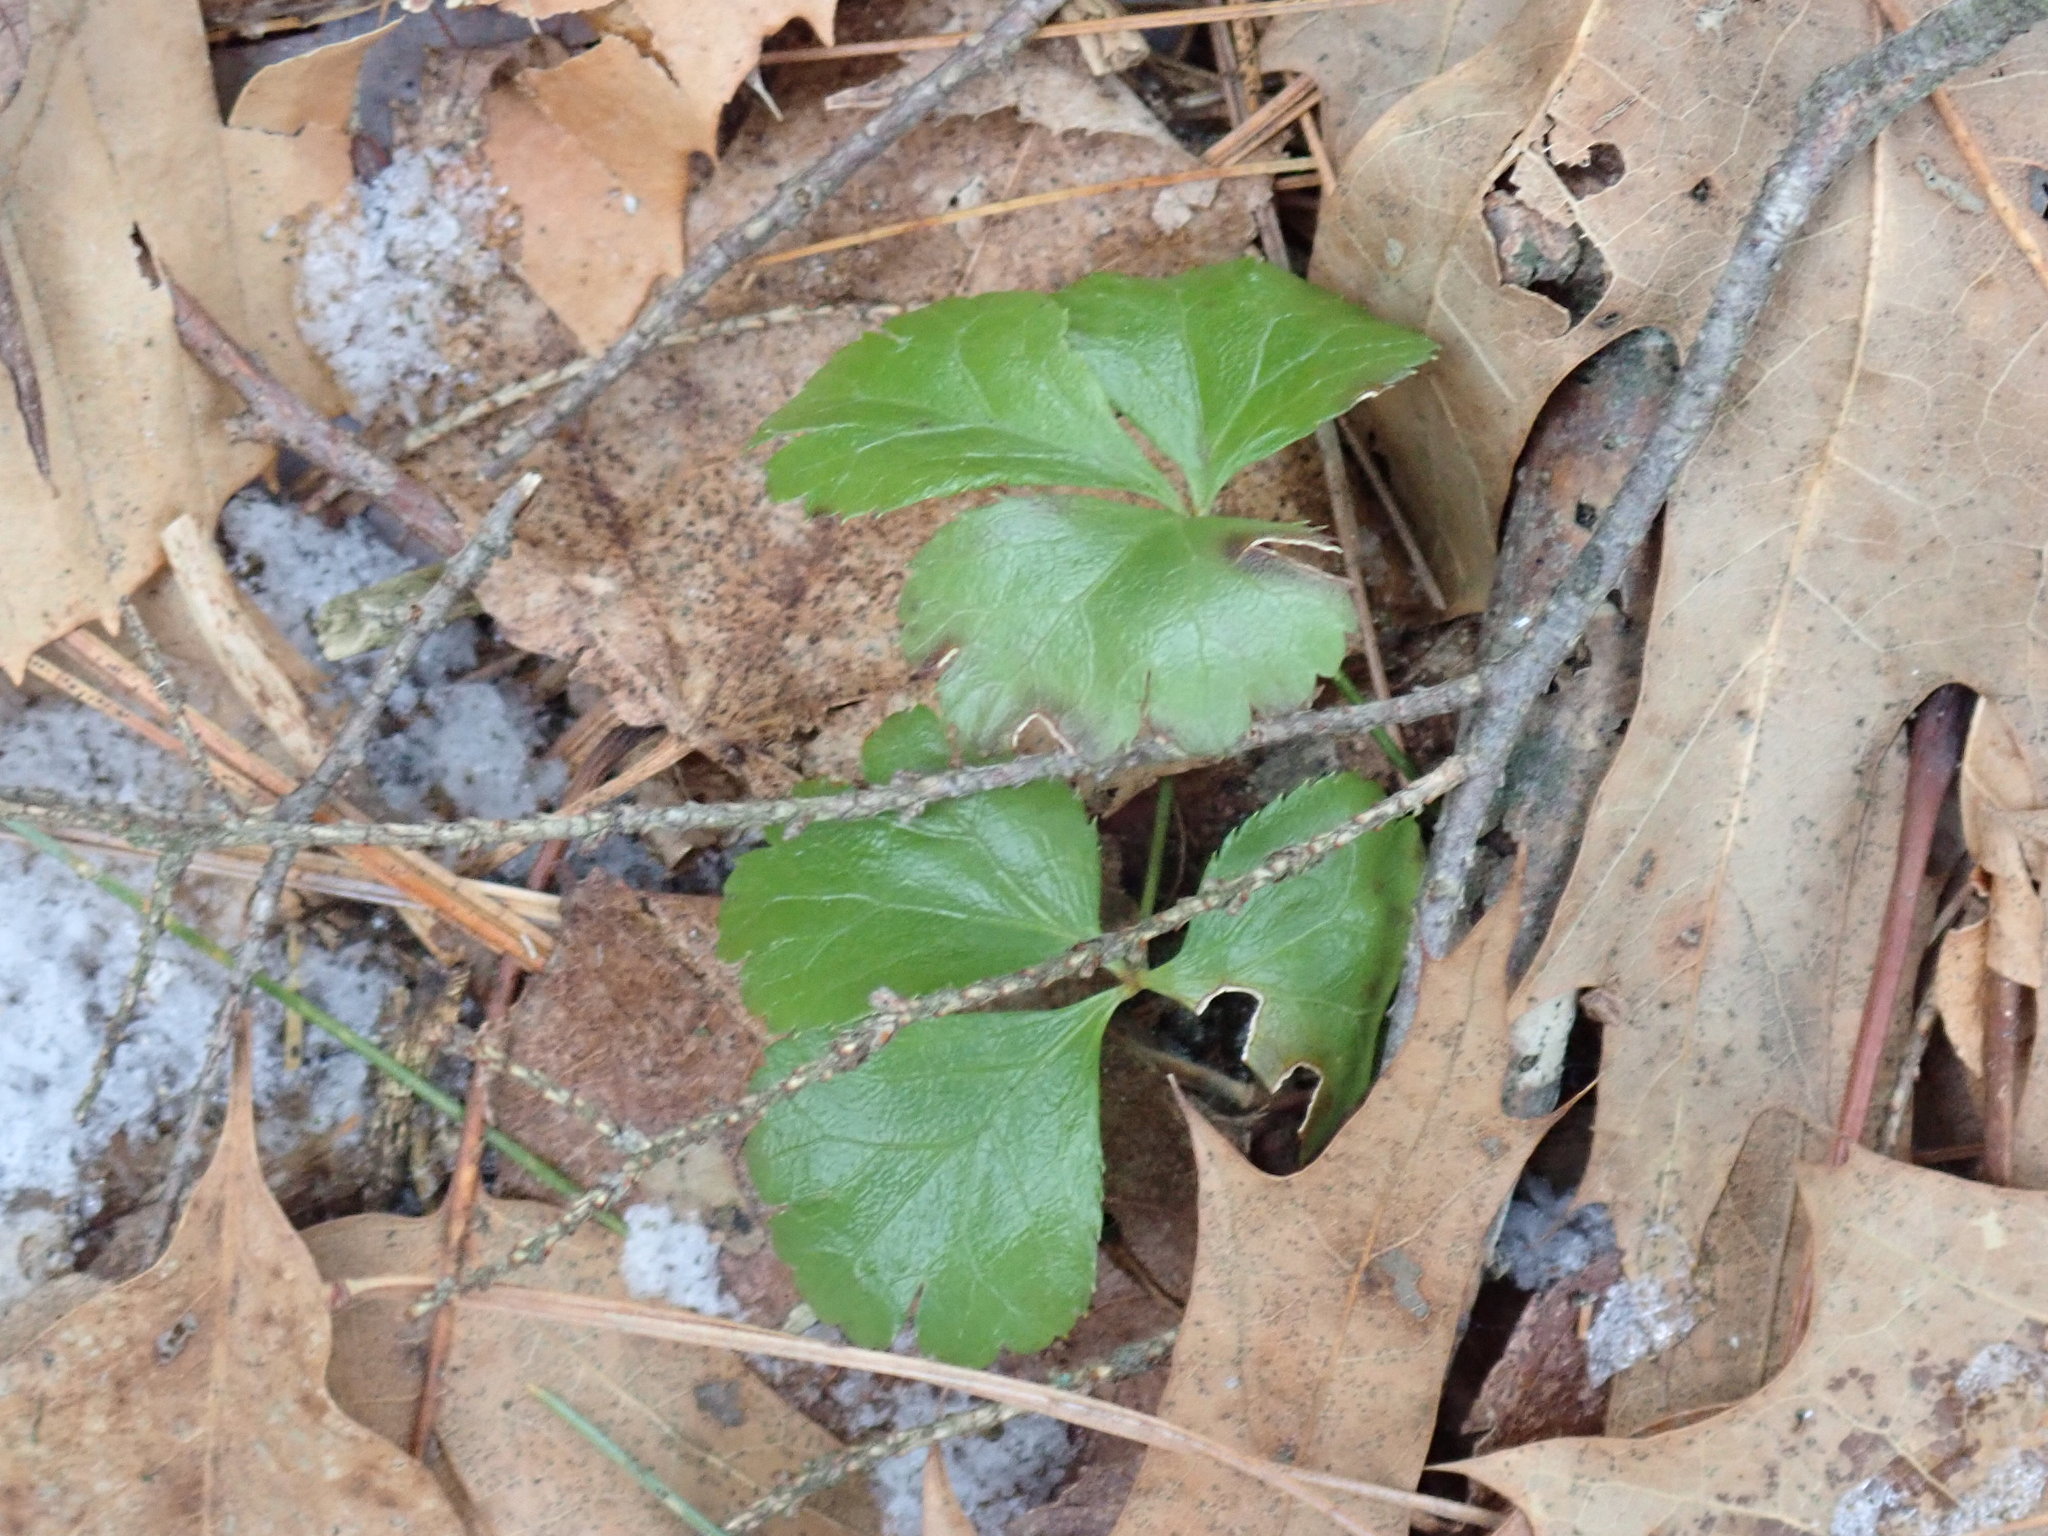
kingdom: Plantae
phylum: Tracheophyta
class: Magnoliopsida
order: Ranunculales
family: Ranunculaceae
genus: Coptis
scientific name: Coptis trifolia
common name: Canker-root
